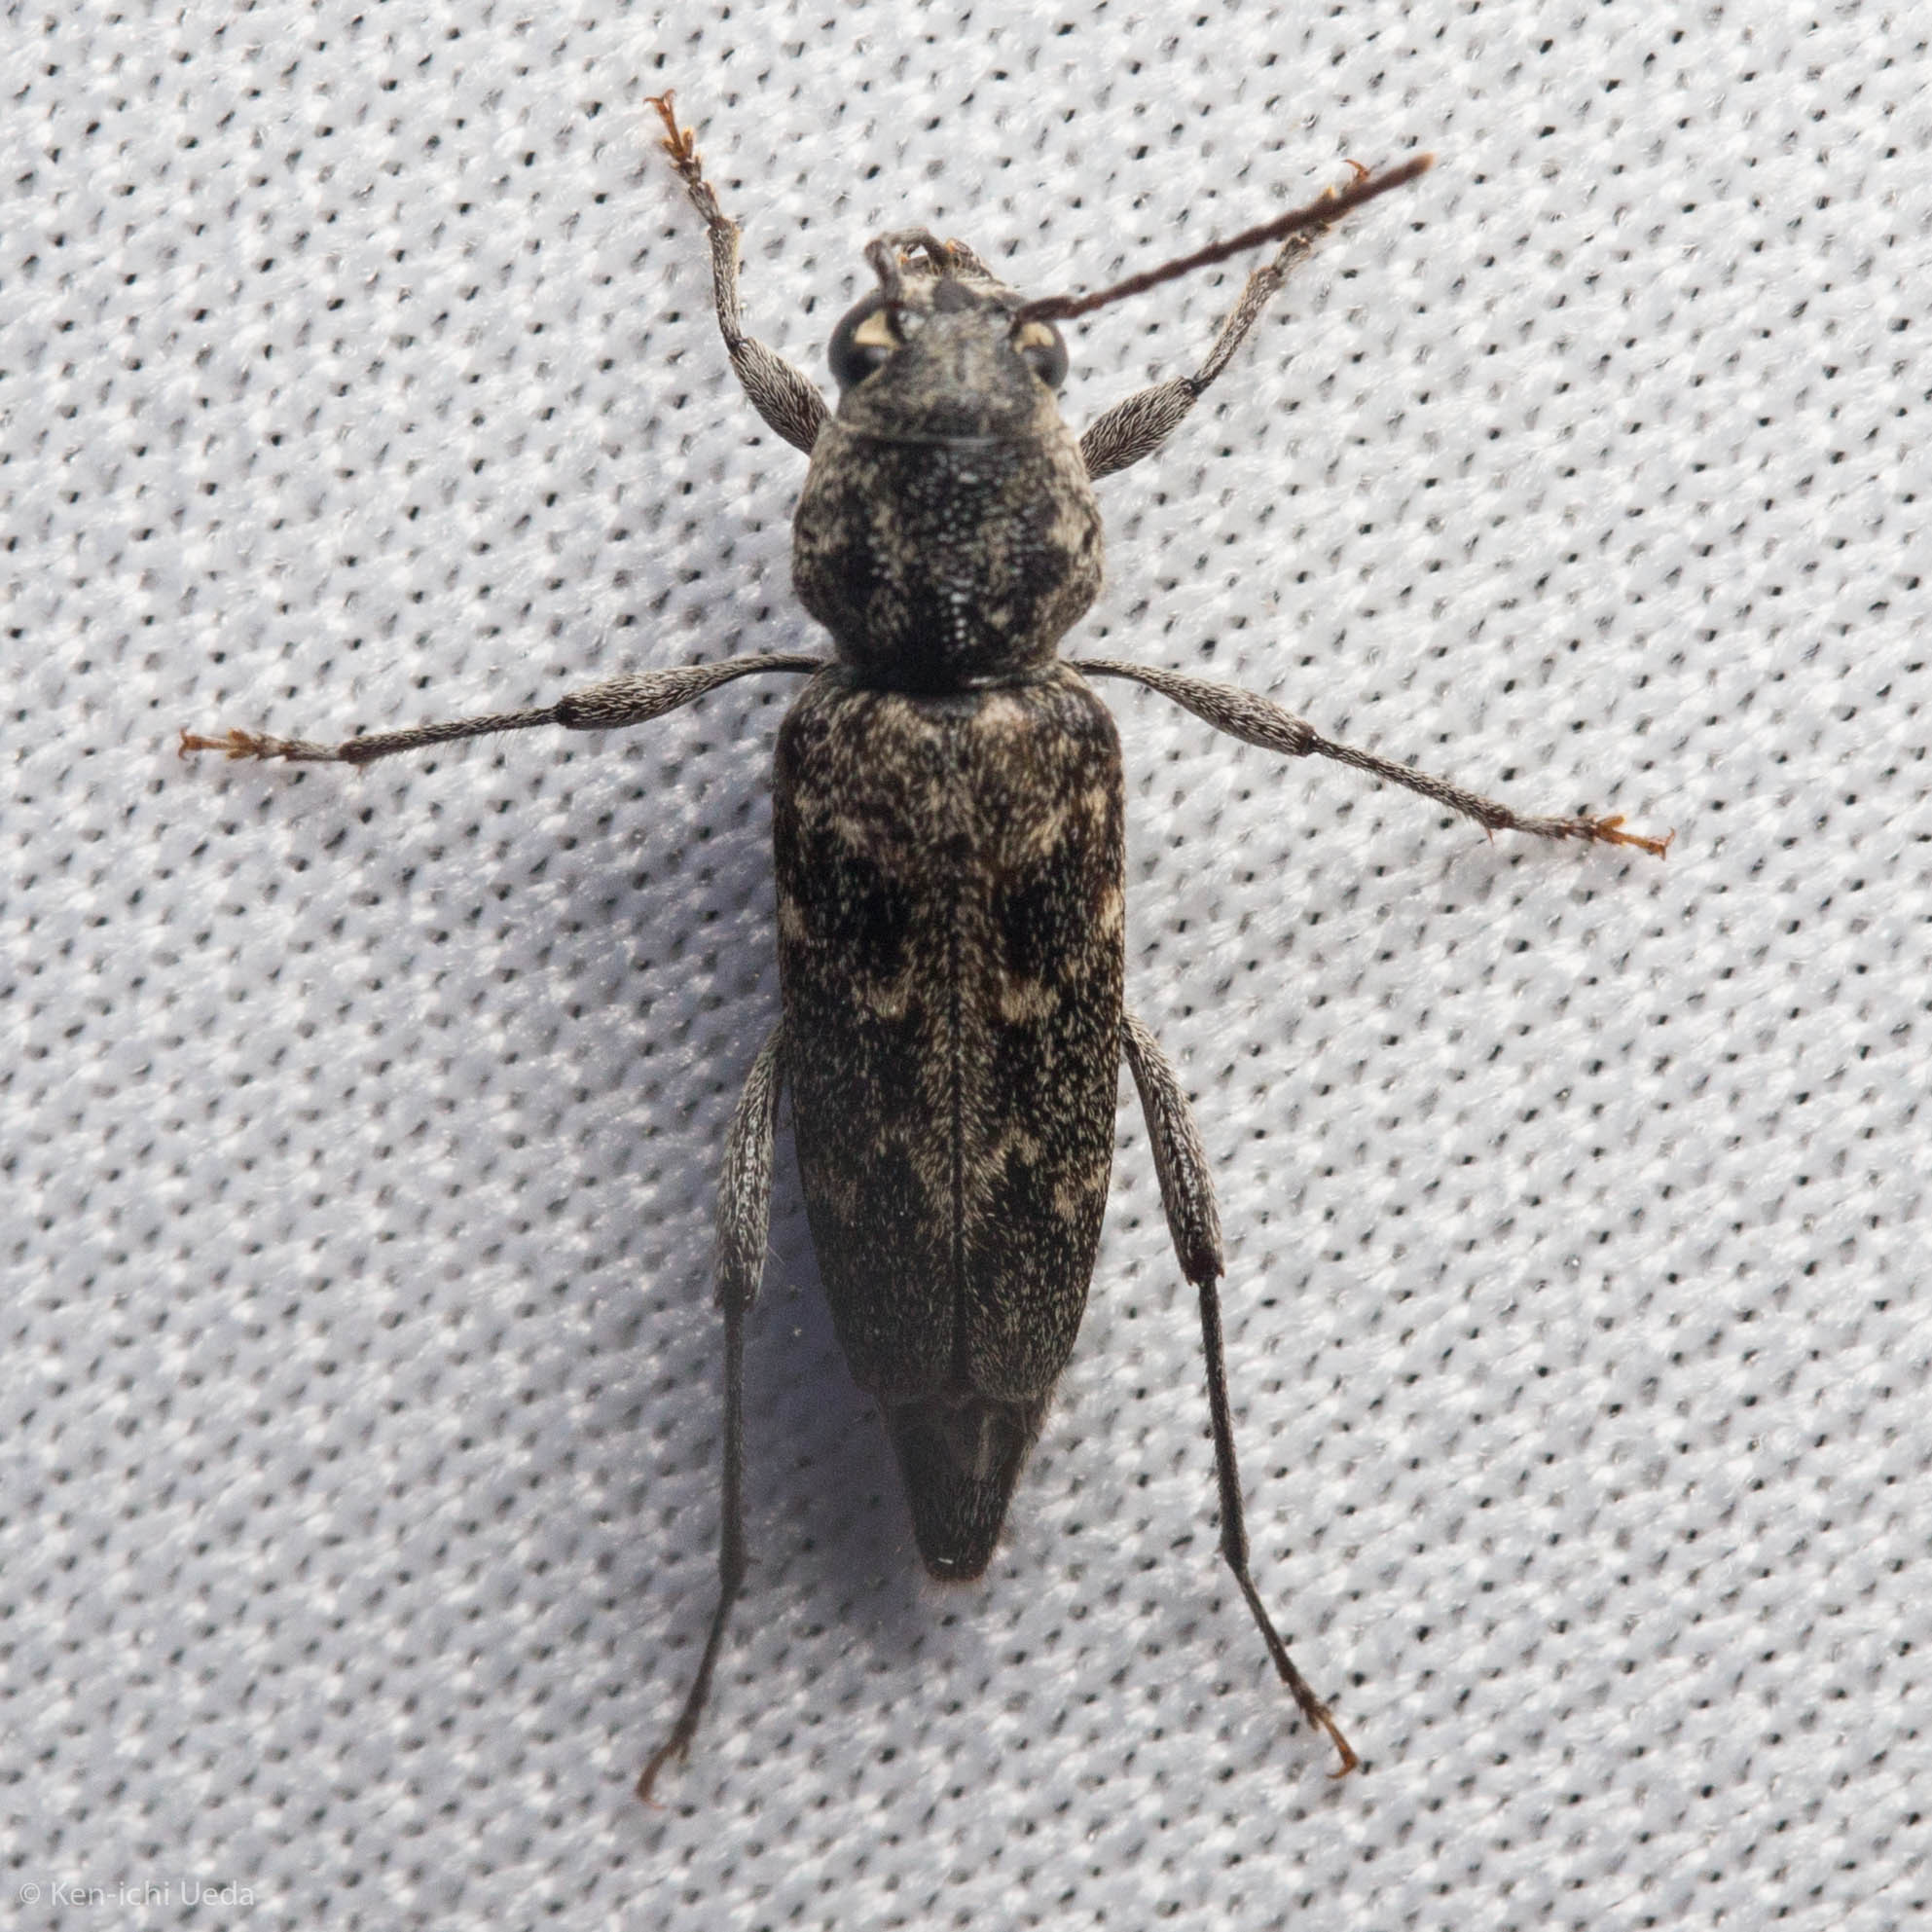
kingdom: Animalia
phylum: Arthropoda
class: Insecta
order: Coleoptera
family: Cerambycidae
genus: Xylotrechus
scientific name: Xylotrechus nauticus
